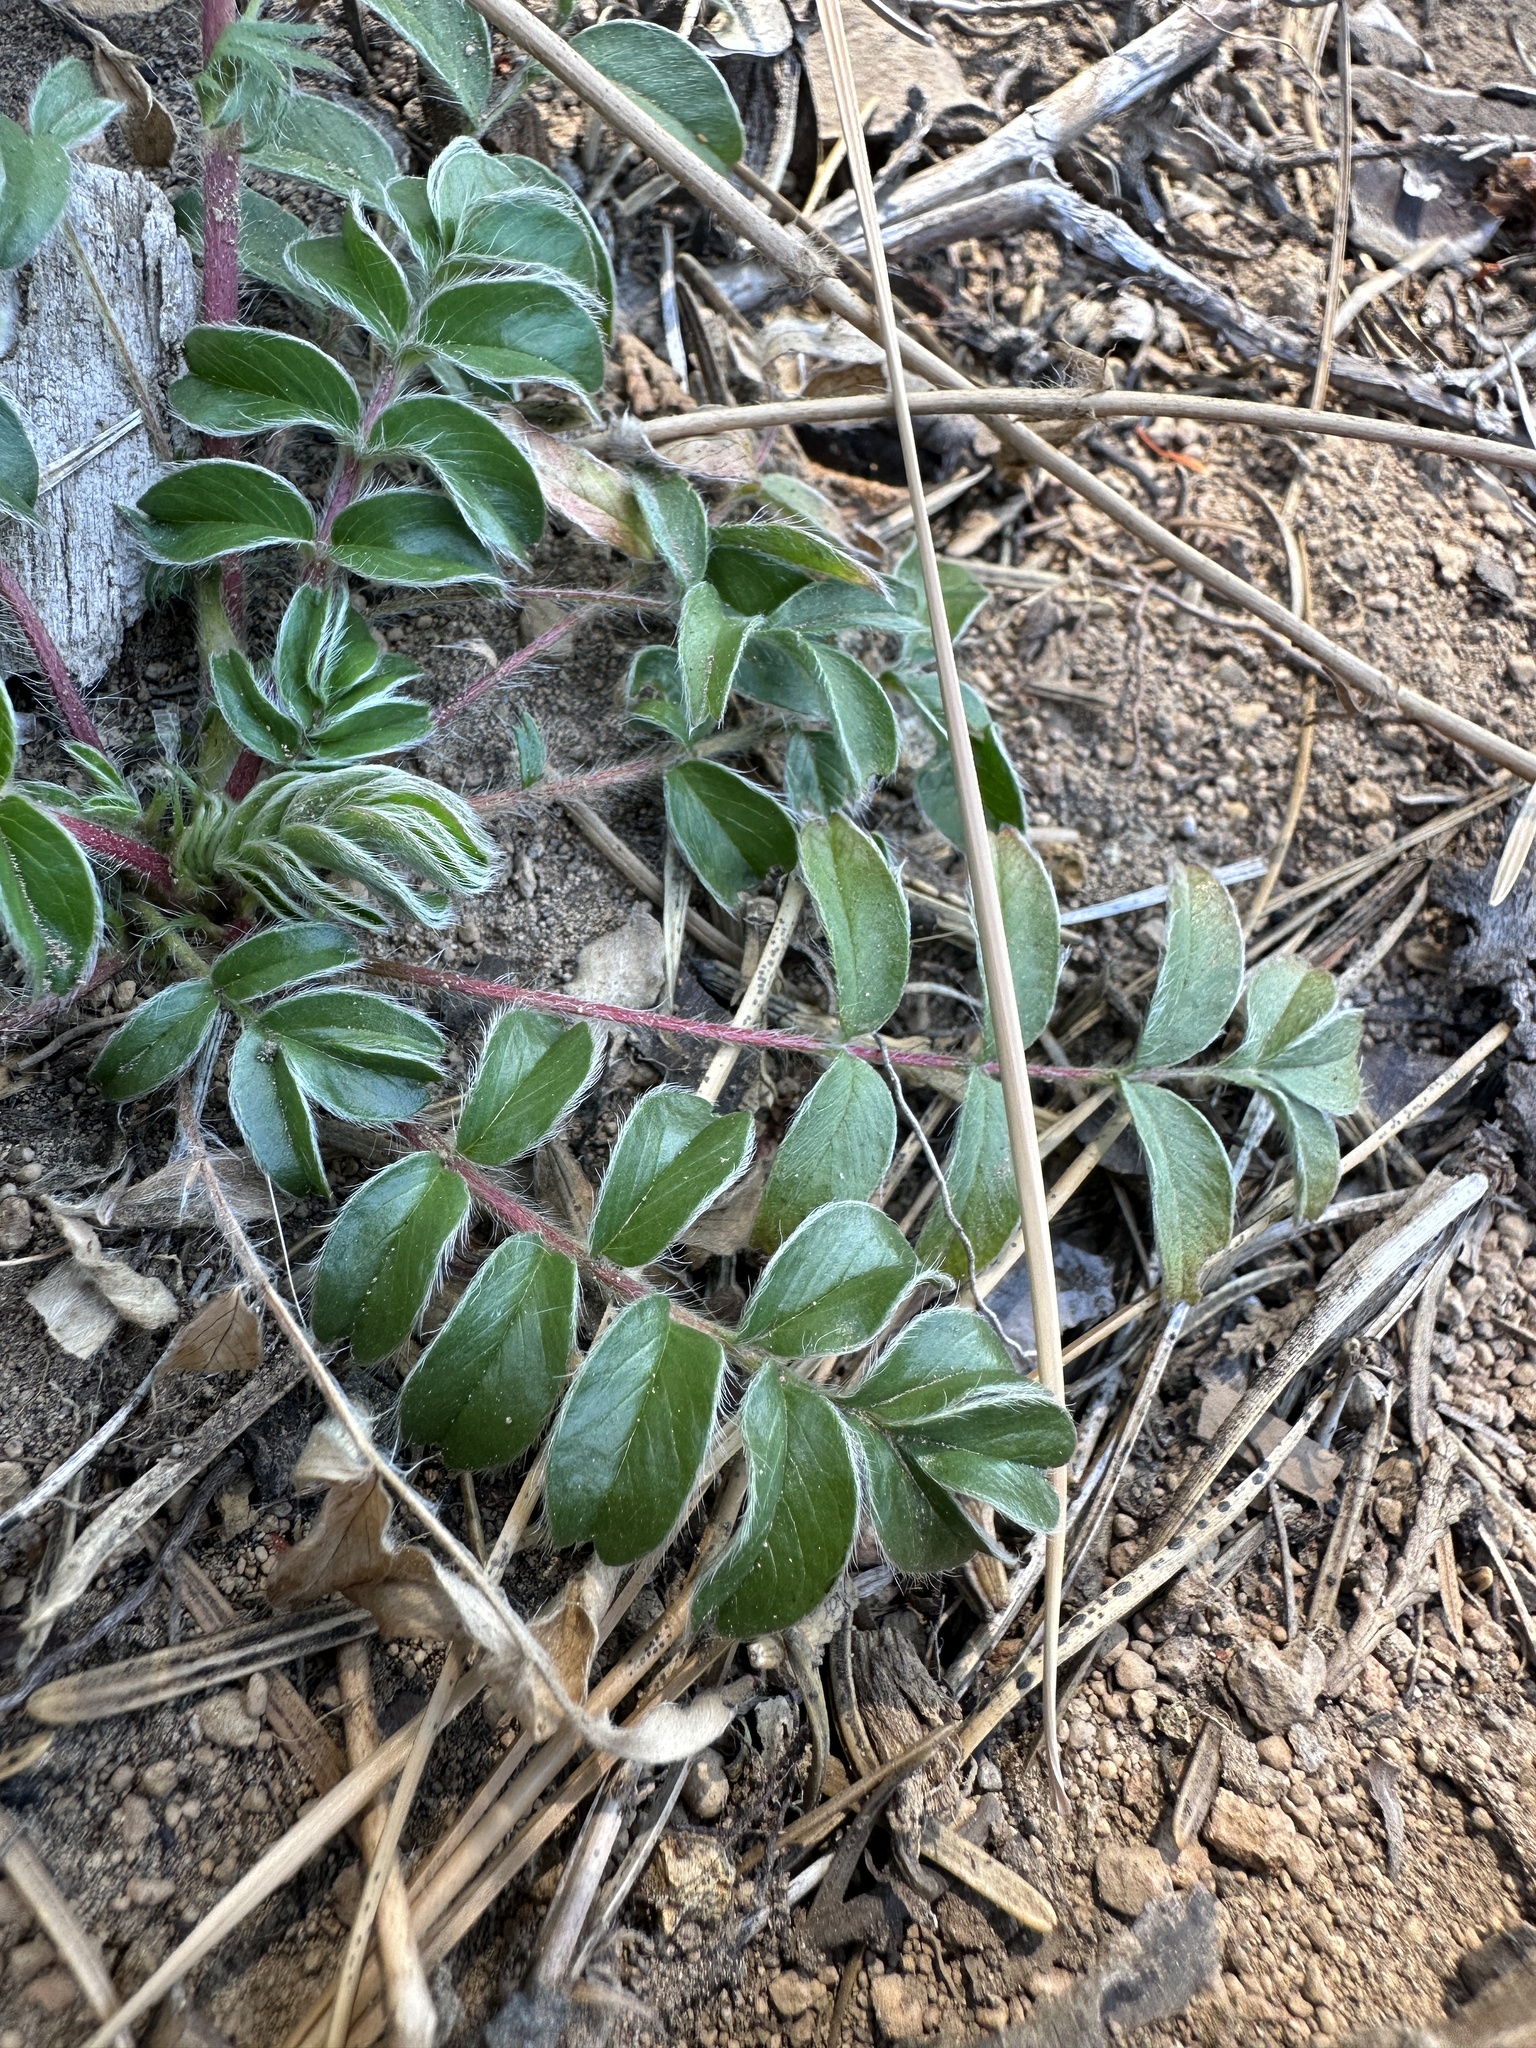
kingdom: Plantae
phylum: Tracheophyta
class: Magnoliopsida
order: Rosales
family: Rosaceae
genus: Potentilla
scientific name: Potentilla tilingii
